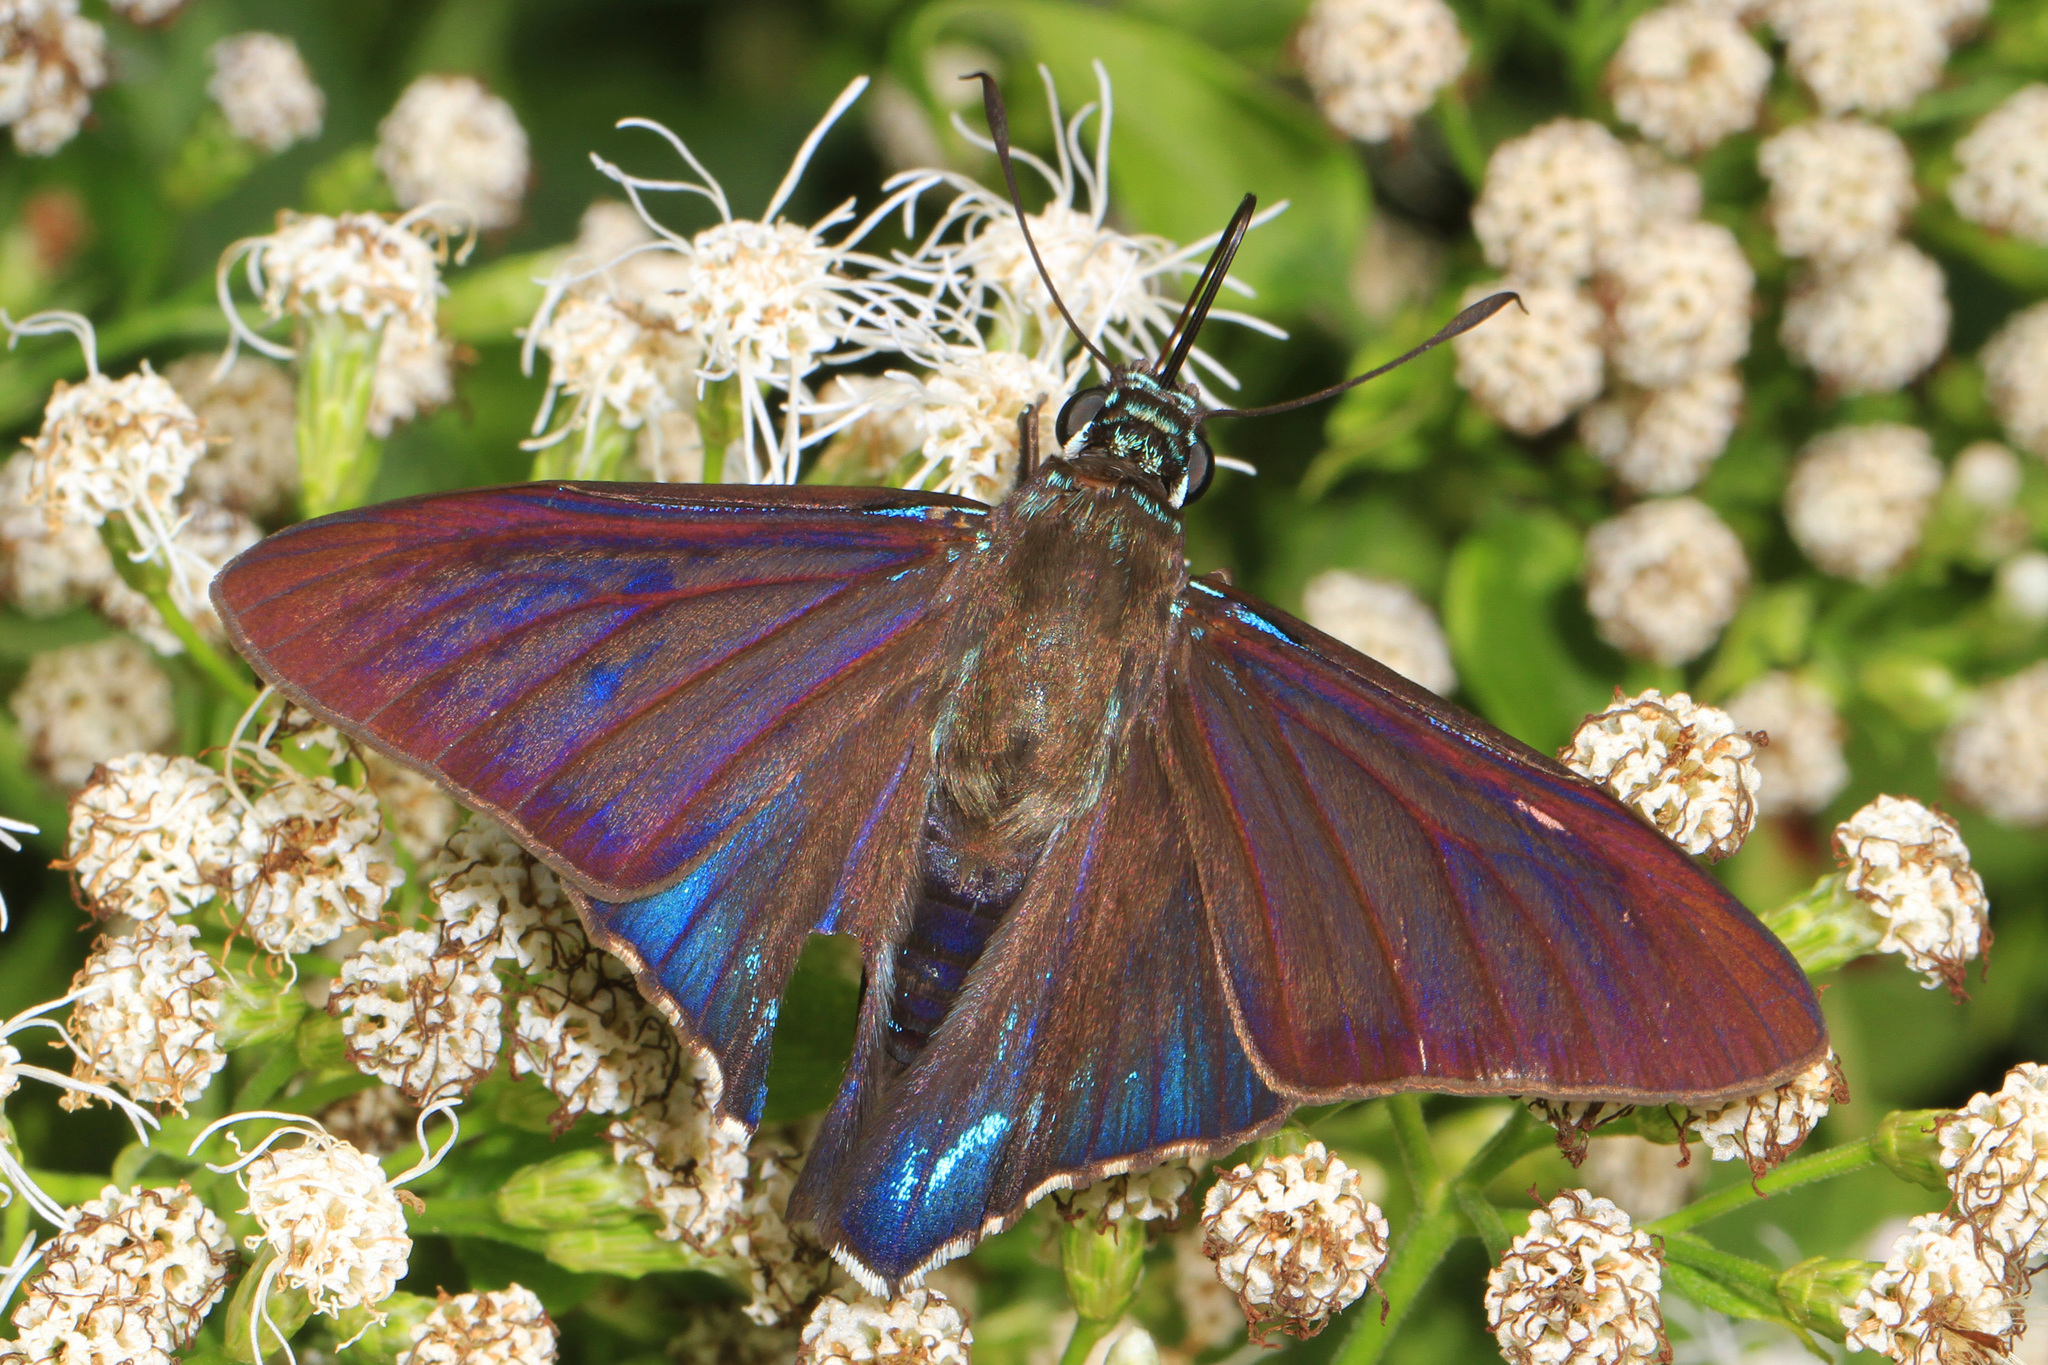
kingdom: Animalia
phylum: Arthropoda
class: Insecta
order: Lepidoptera
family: Hesperiidae
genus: Phocides
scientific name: Phocides pigmalion
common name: Mangrove skipper
